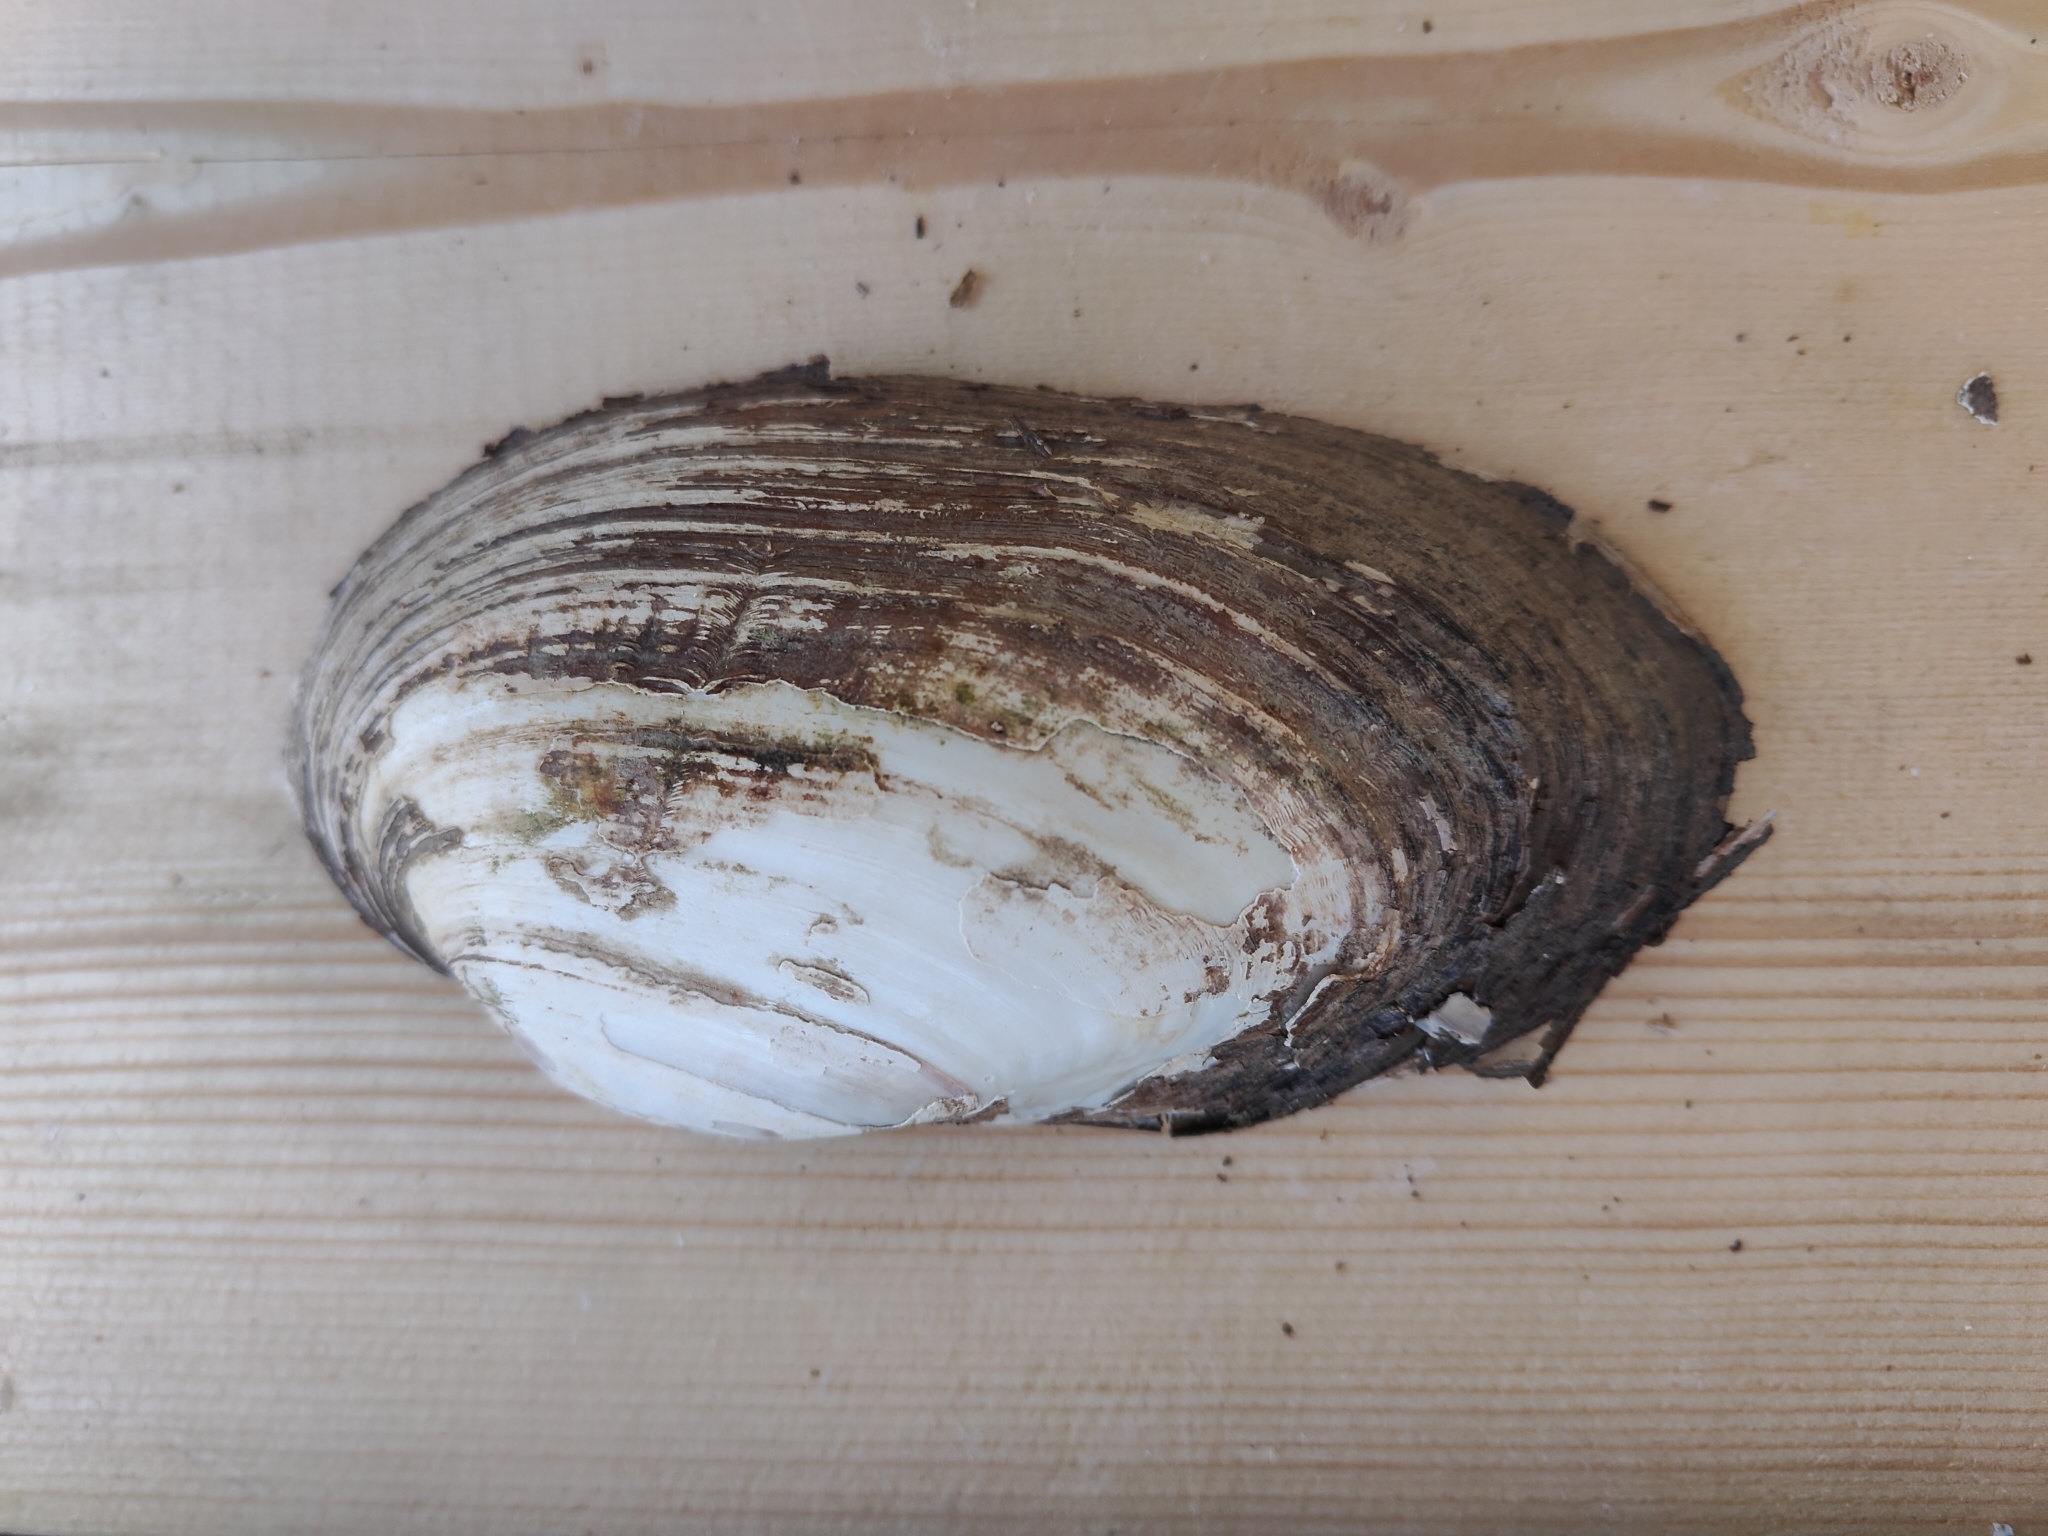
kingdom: Animalia
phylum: Mollusca
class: Bivalvia
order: Unionida
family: Unionidae
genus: Lampsilis
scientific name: Lampsilis siliquoidea
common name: Fatmucket
